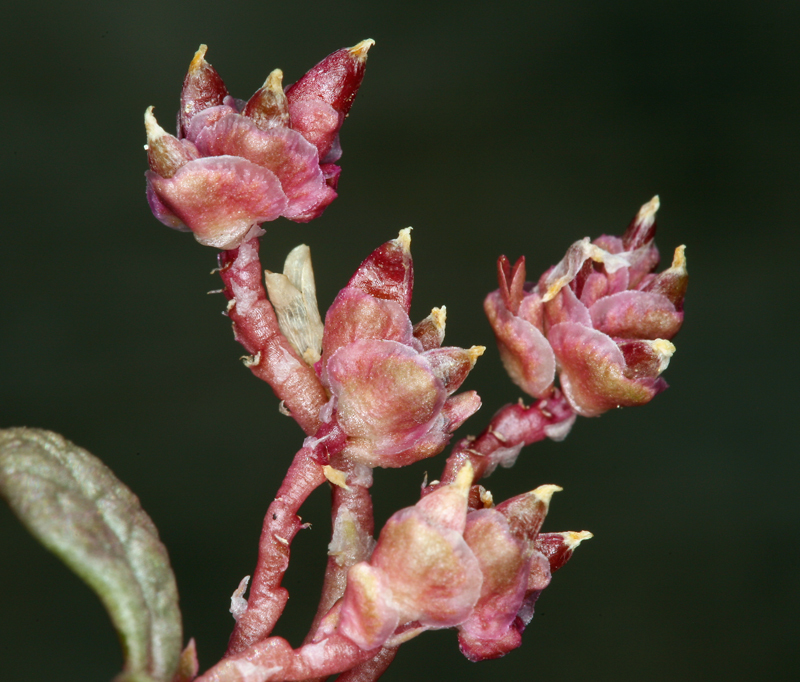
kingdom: Plantae
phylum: Tracheophyta
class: Magnoliopsida
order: Caryophyllales
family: Montiaceae
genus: Calyptridium
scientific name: Calyptridium nevadense
